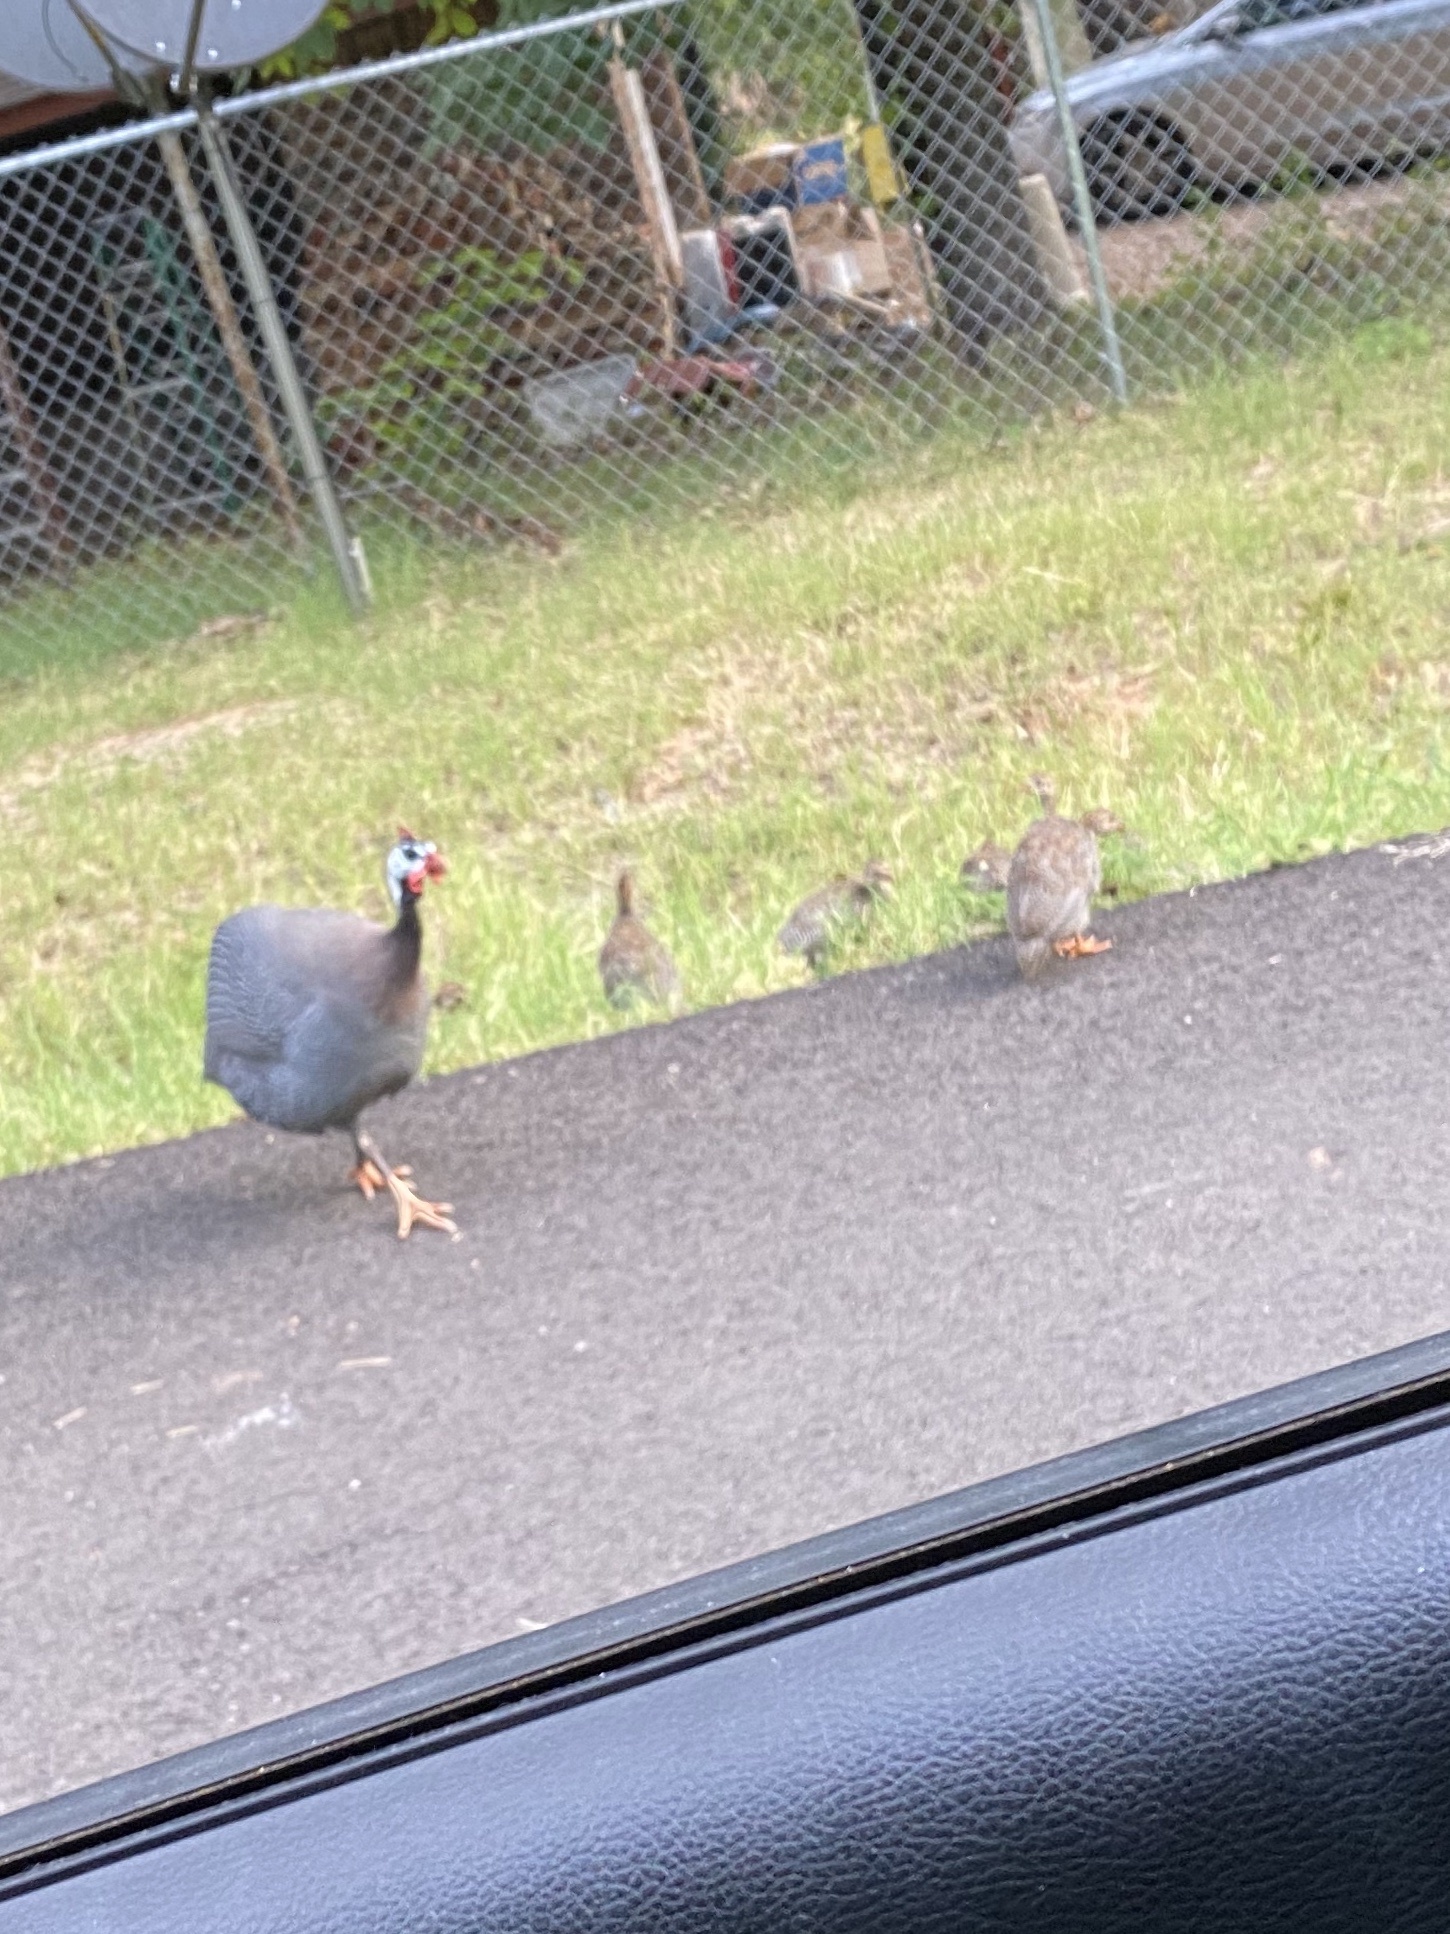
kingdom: Animalia
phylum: Chordata
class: Aves
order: Galliformes
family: Numididae
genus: Numida
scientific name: Numida meleagris
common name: Helmeted guineafowl
